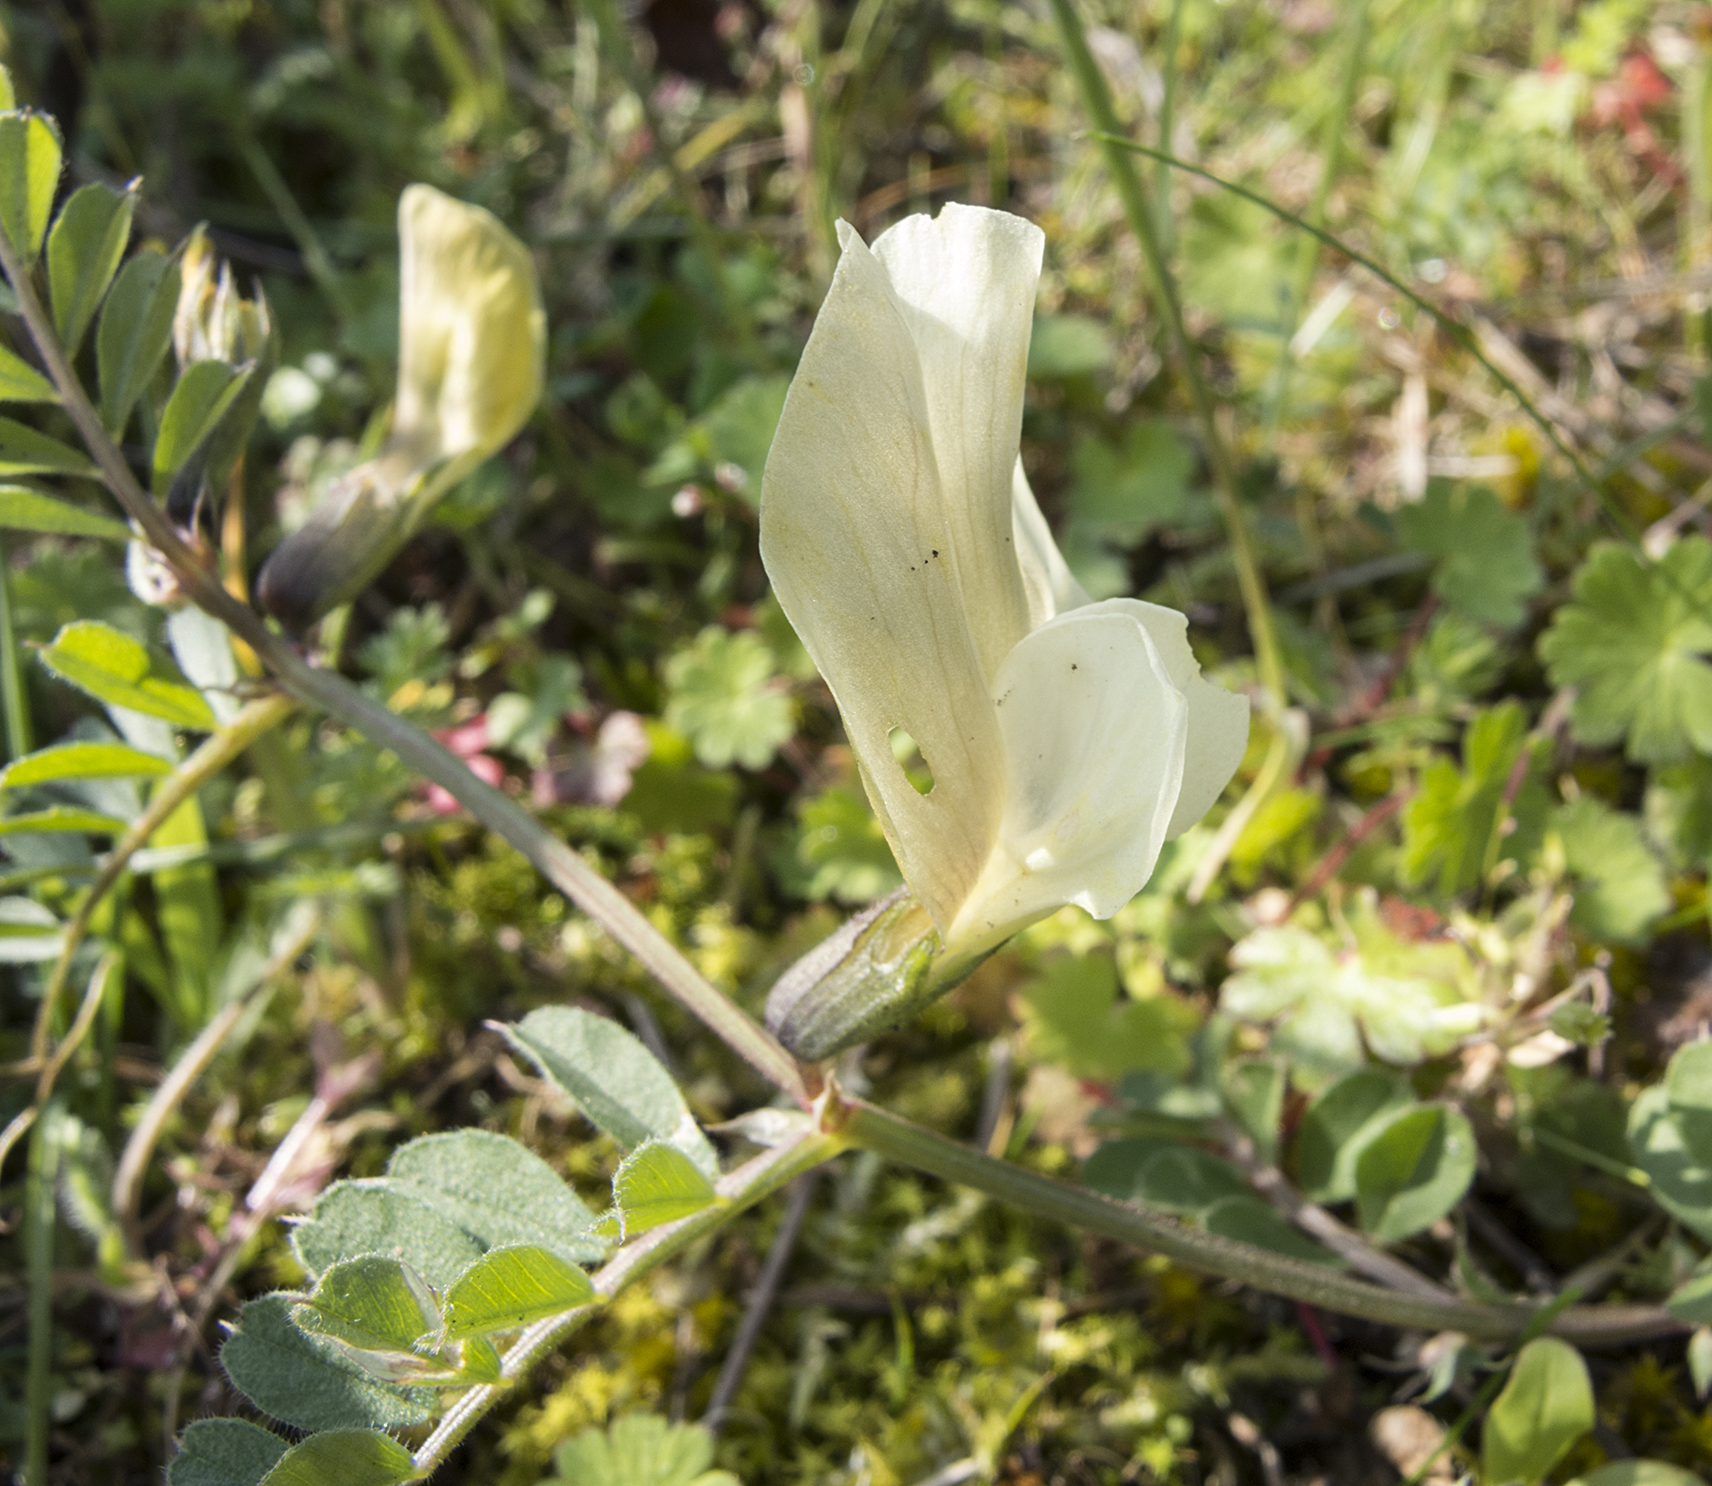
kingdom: Plantae
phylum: Tracheophyta
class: Magnoliopsida
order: Fabales
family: Fabaceae
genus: Vicia
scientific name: Vicia grandiflora
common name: Large yellow vetch
